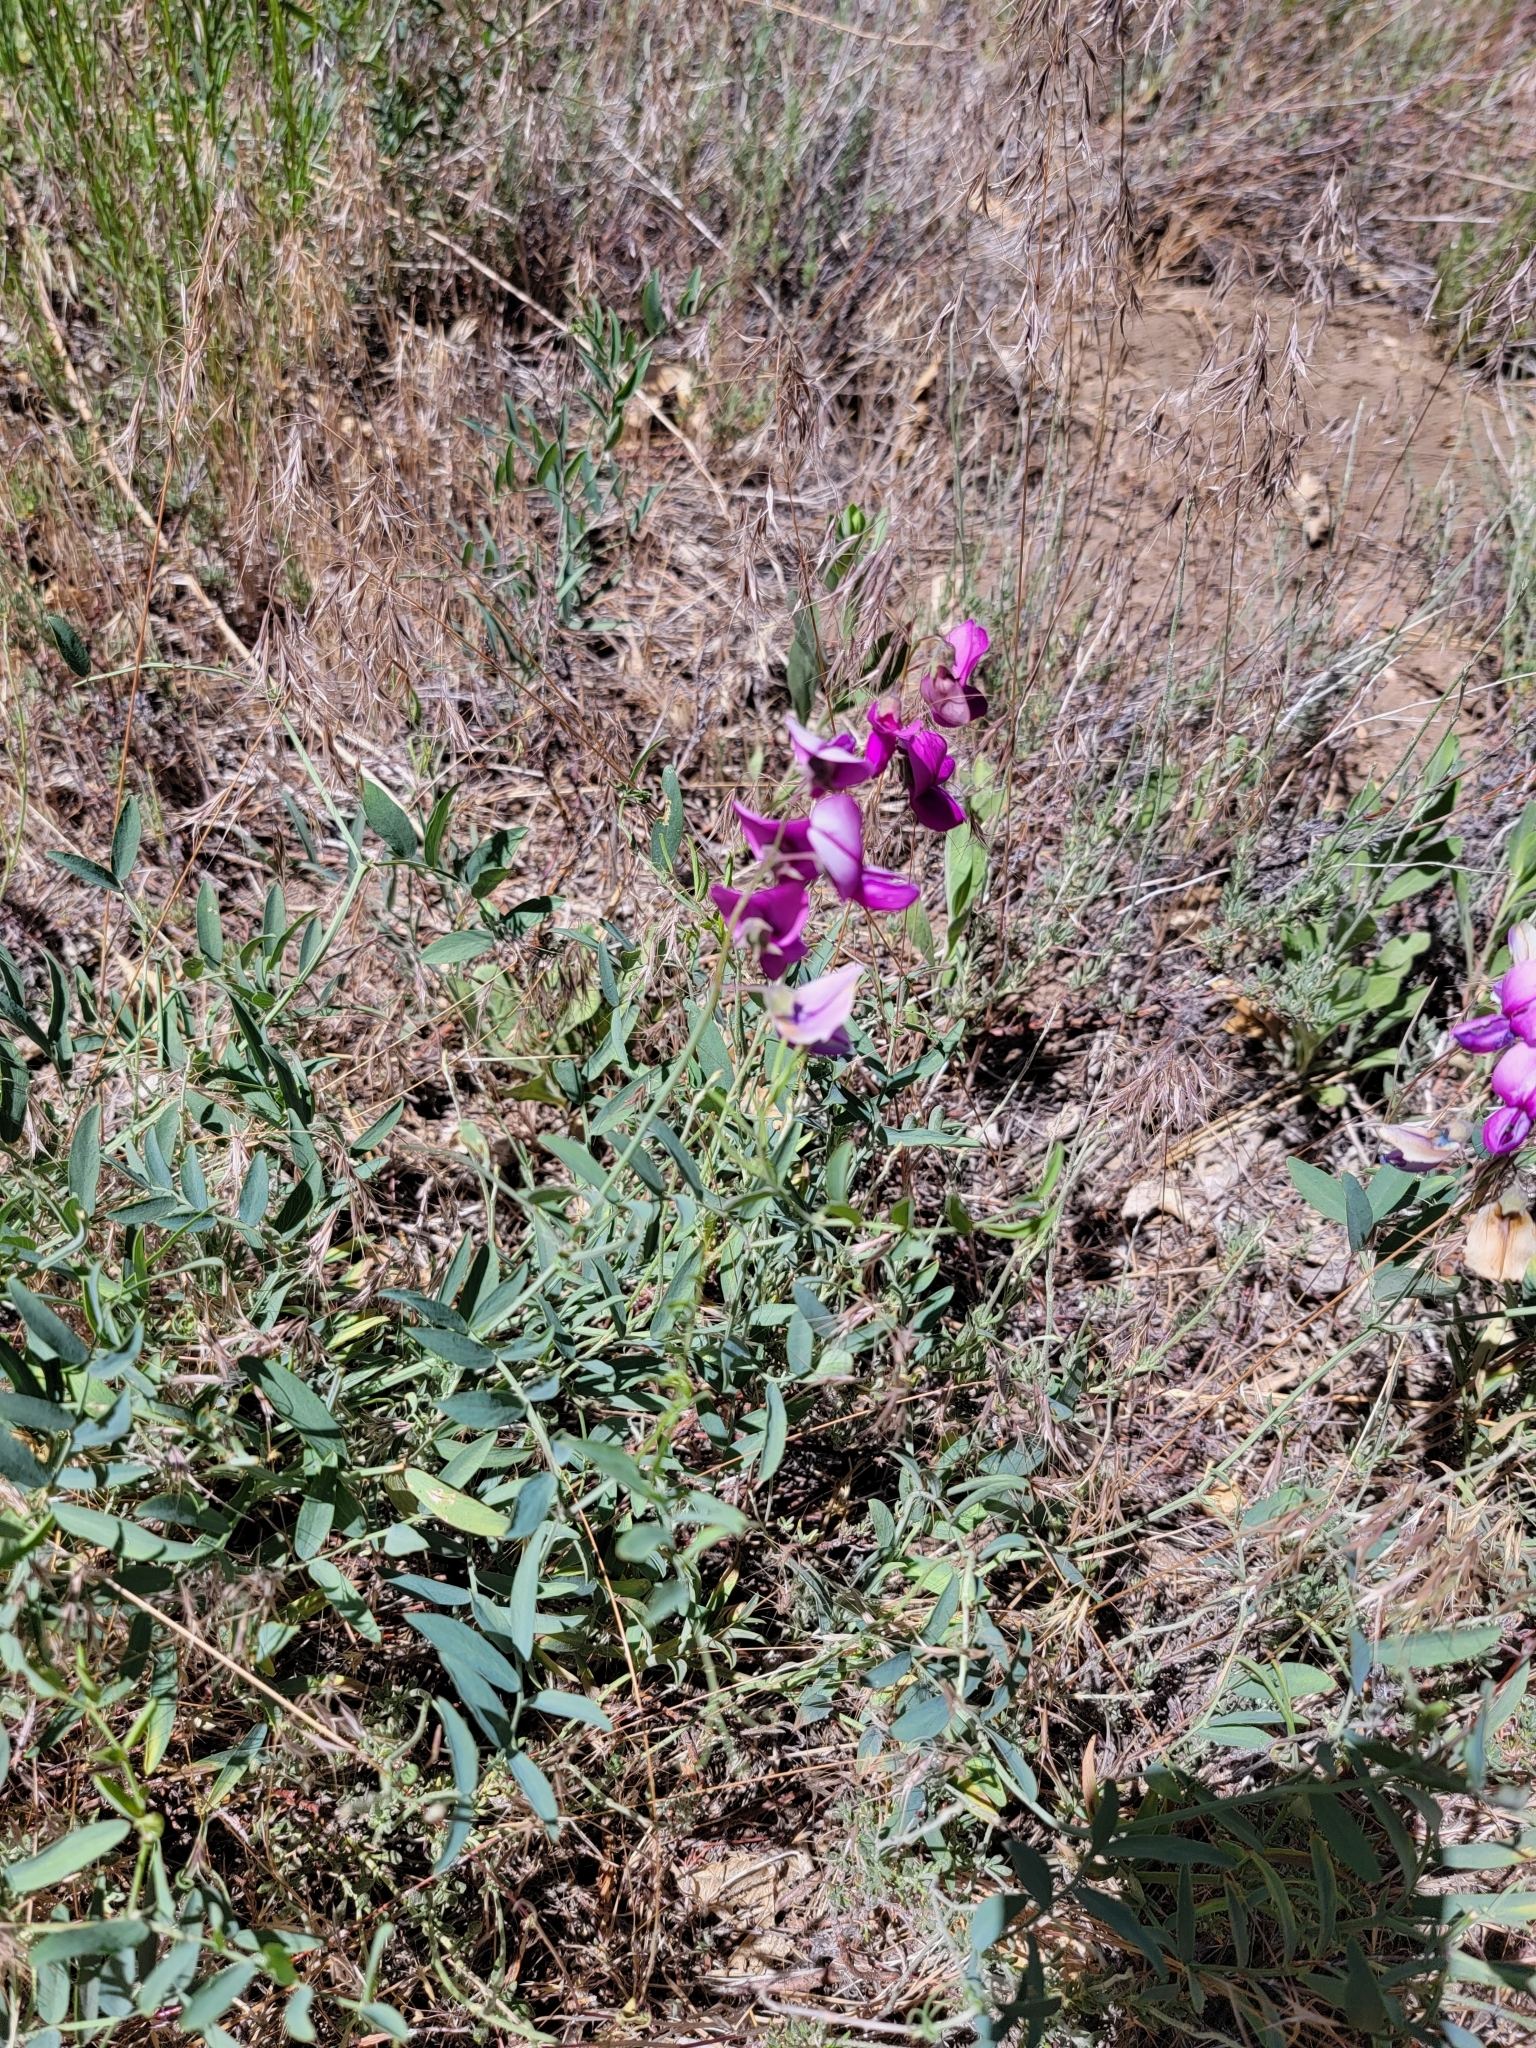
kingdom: Plantae
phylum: Tracheophyta
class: Magnoliopsida
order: Fabales
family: Fabaceae
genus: Lathyrus
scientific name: Lathyrus vestitus
